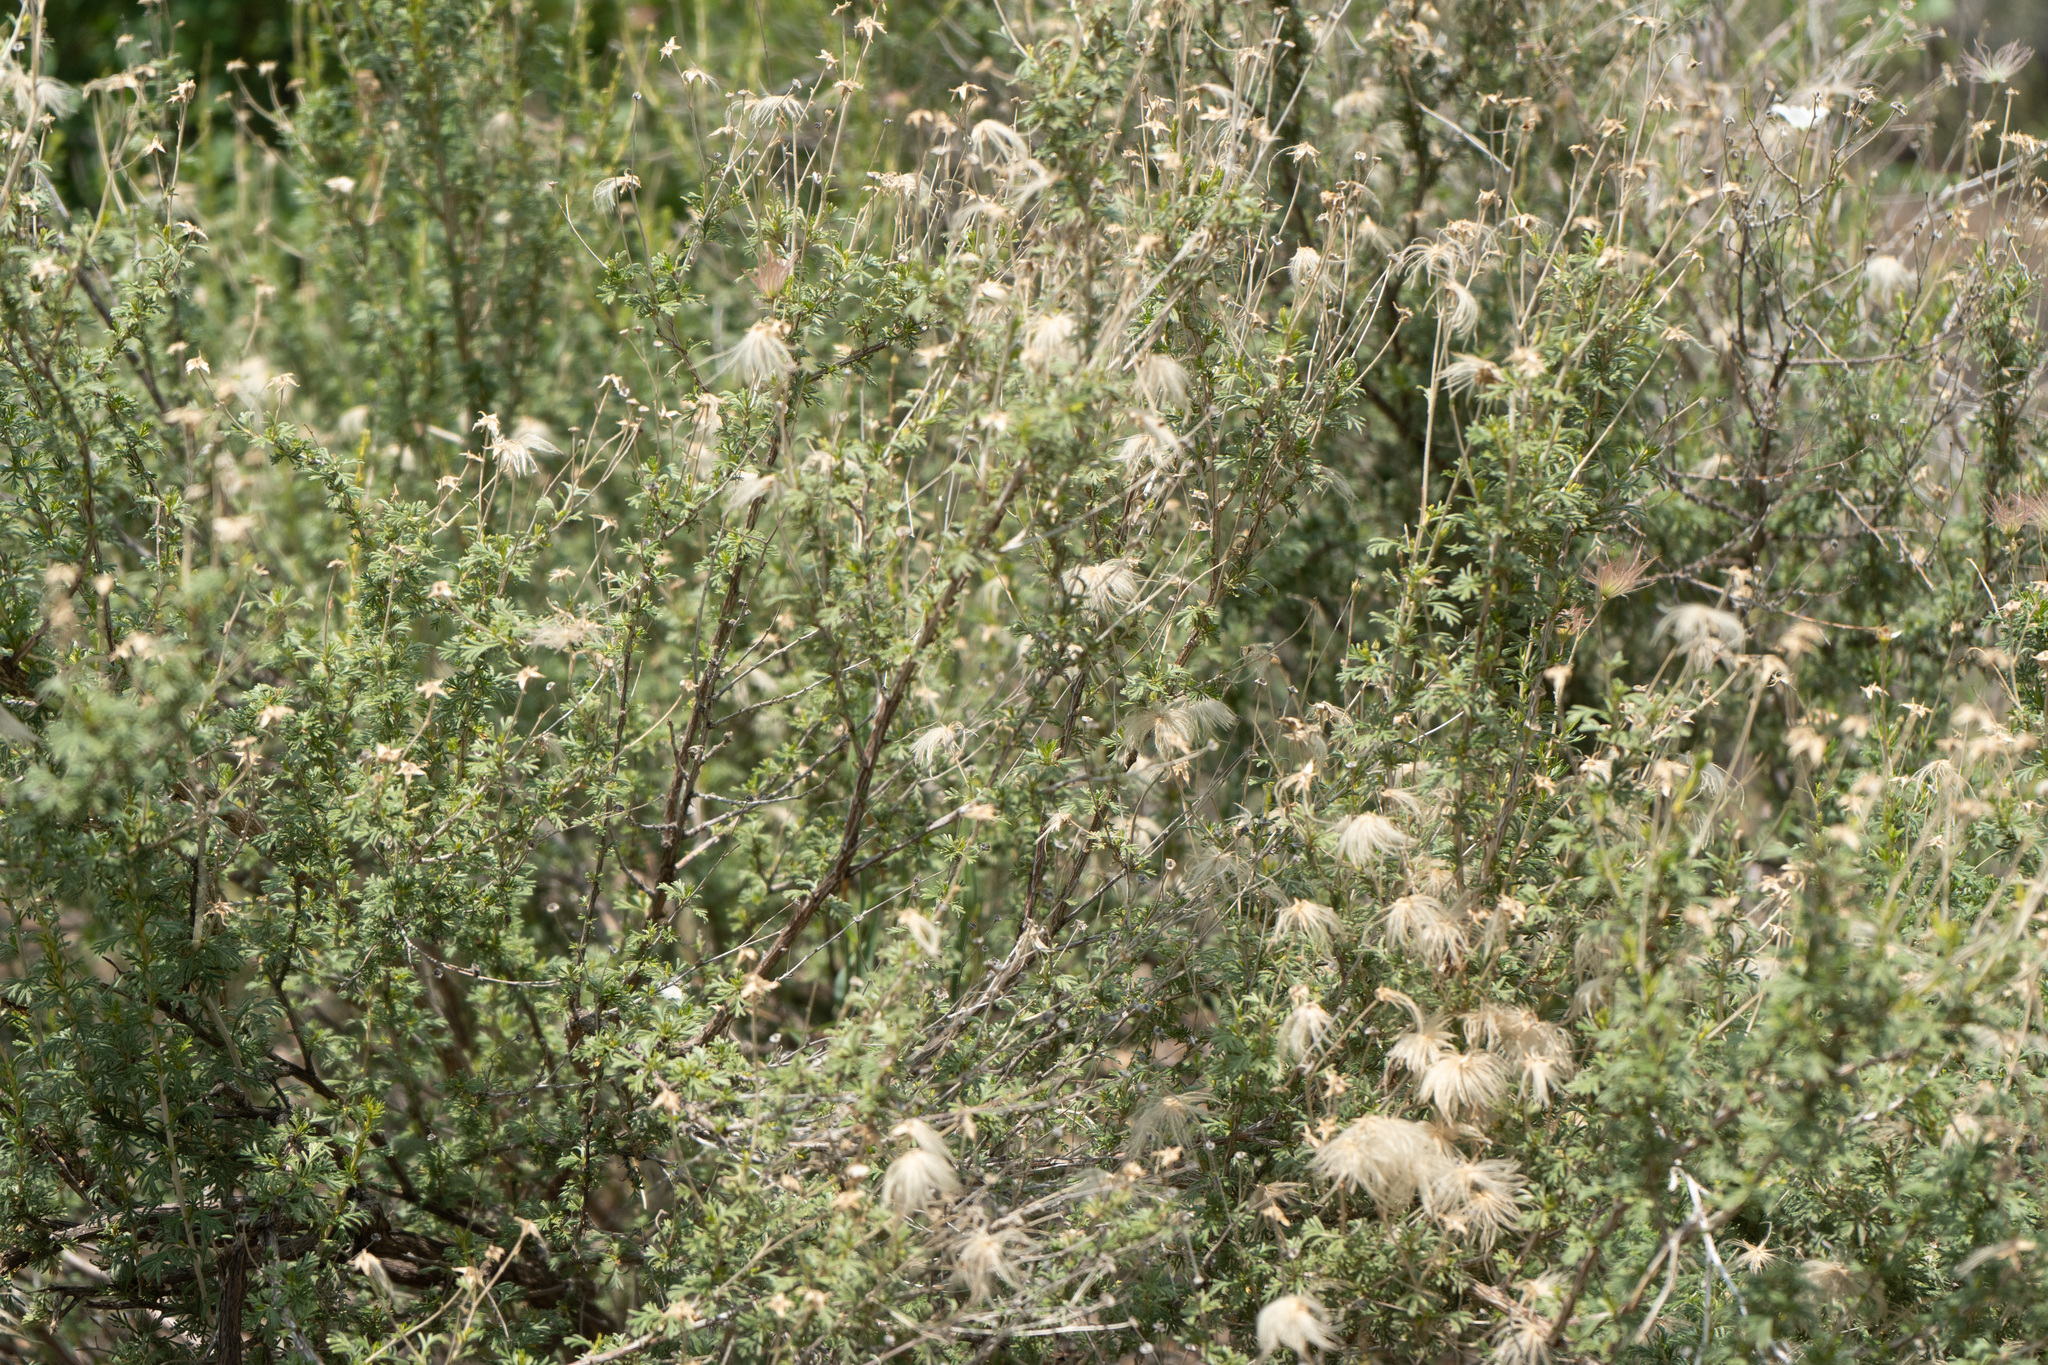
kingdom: Plantae
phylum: Tracheophyta
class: Magnoliopsida
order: Rosales
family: Rosaceae
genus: Fallugia
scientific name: Fallugia paradoxa
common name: Apache-plume
